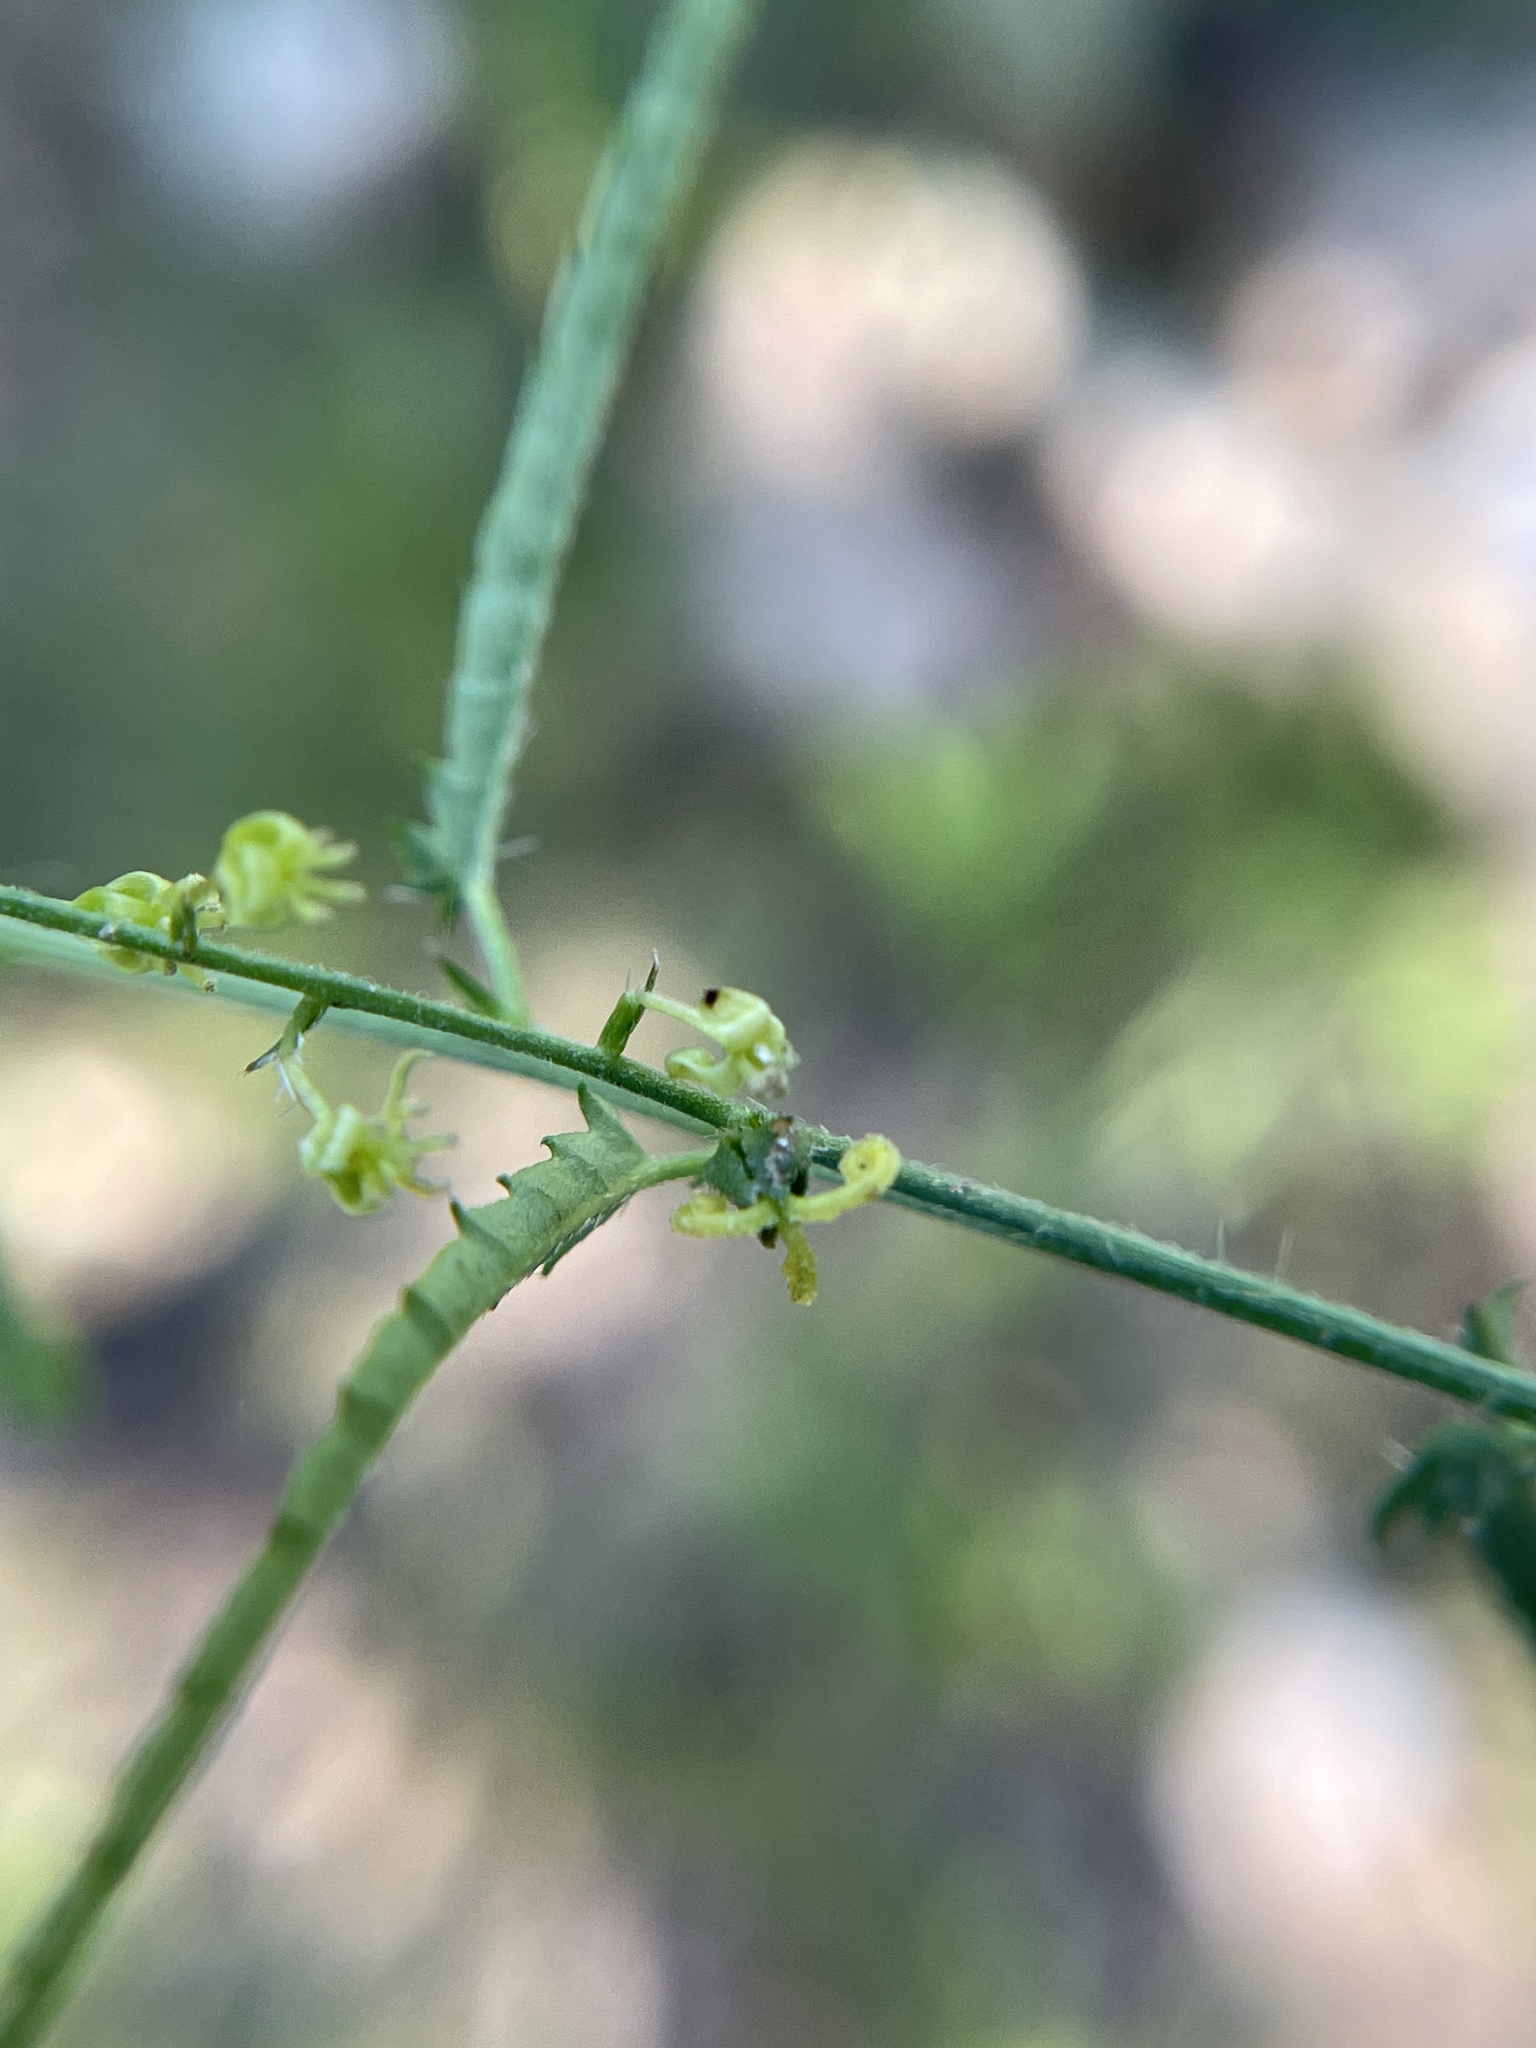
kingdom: Plantae
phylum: Tracheophyta
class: Magnoliopsida
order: Malpighiales
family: Euphorbiaceae
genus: Tragia
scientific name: Tragia ramosa
